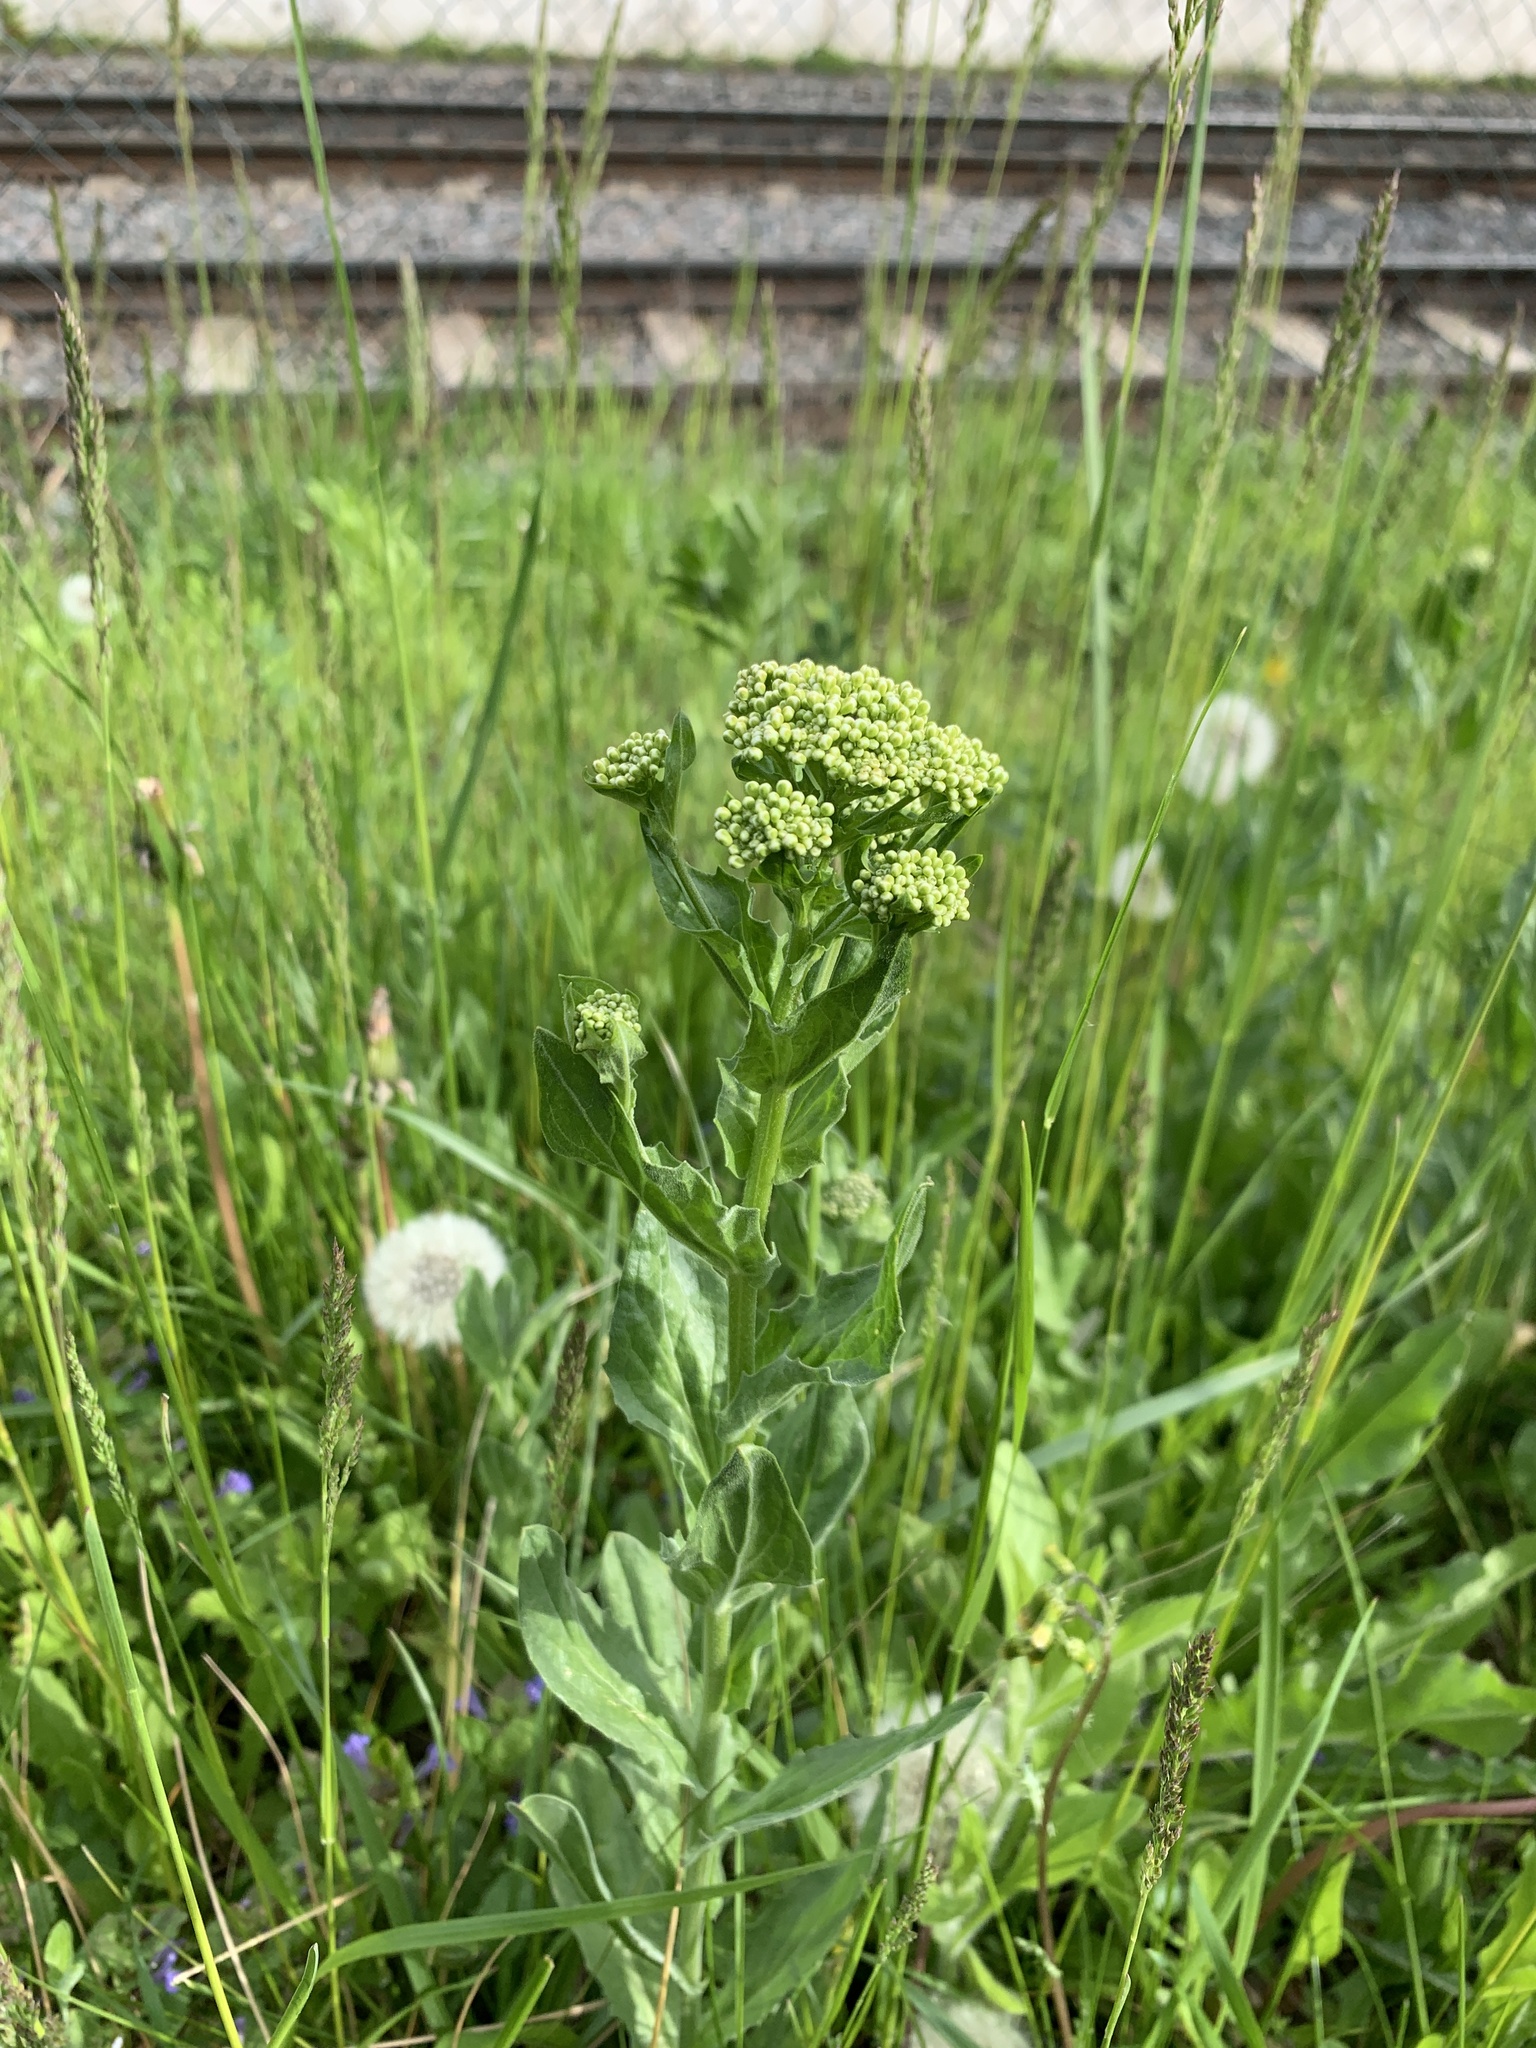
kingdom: Plantae
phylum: Tracheophyta
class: Magnoliopsida
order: Brassicales
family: Brassicaceae
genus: Lepidium
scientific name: Lepidium draba
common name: Hoary cress
